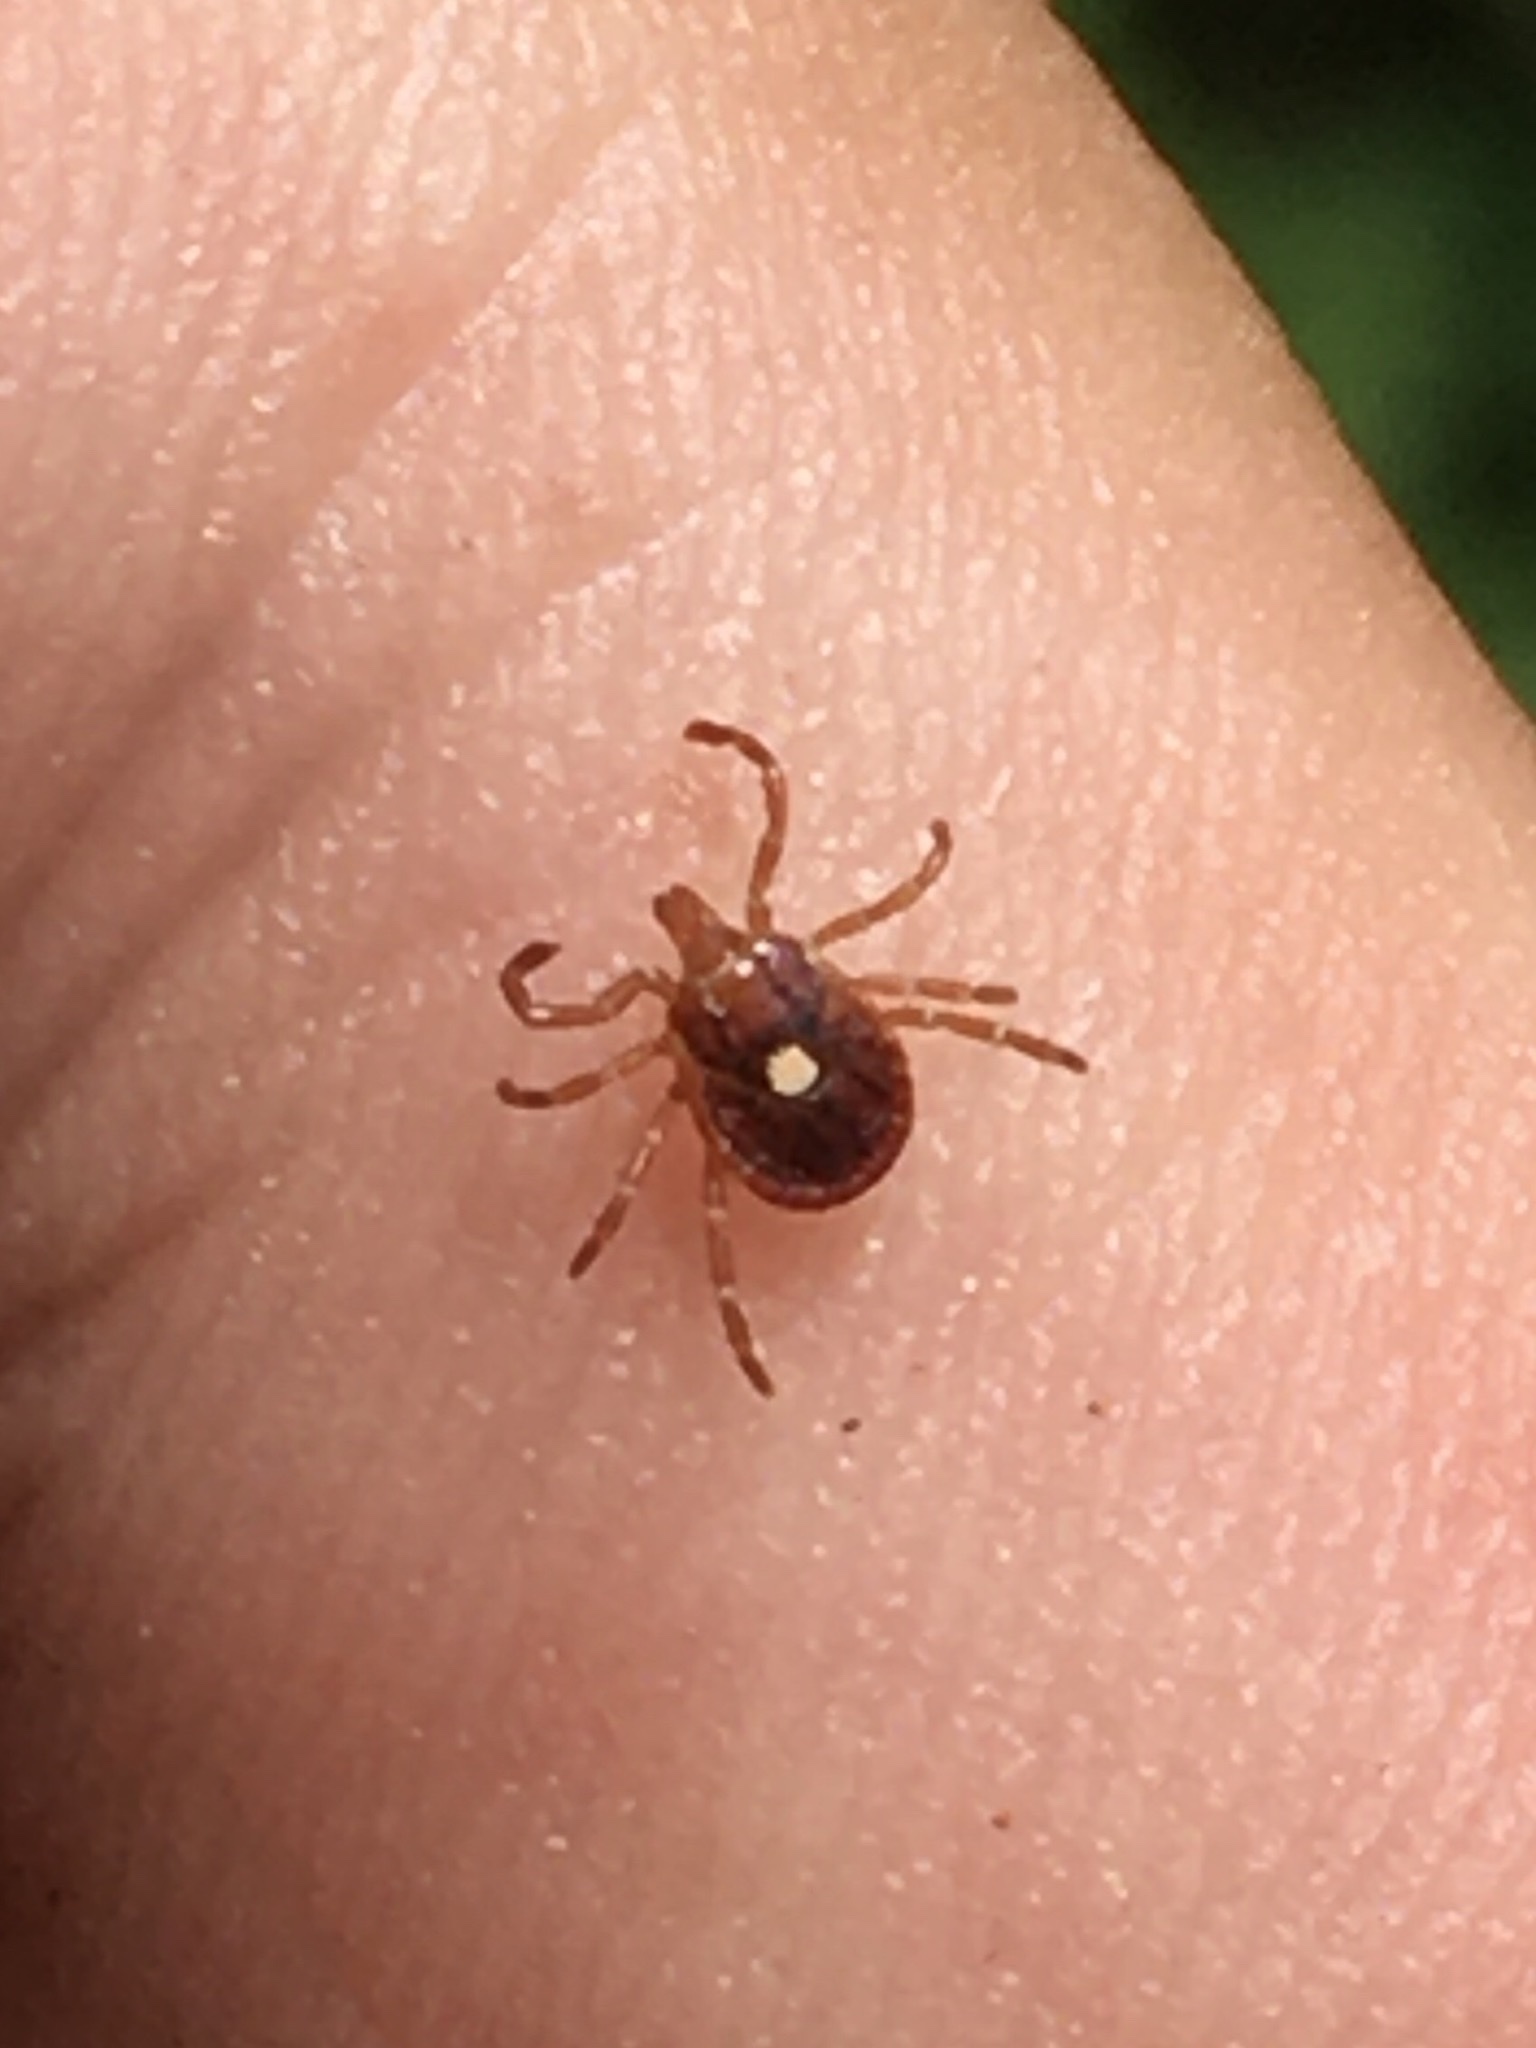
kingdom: Animalia
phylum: Arthropoda
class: Arachnida
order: Ixodida
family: Ixodidae
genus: Amblyomma
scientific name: Amblyomma americanum
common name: Lone star tick
